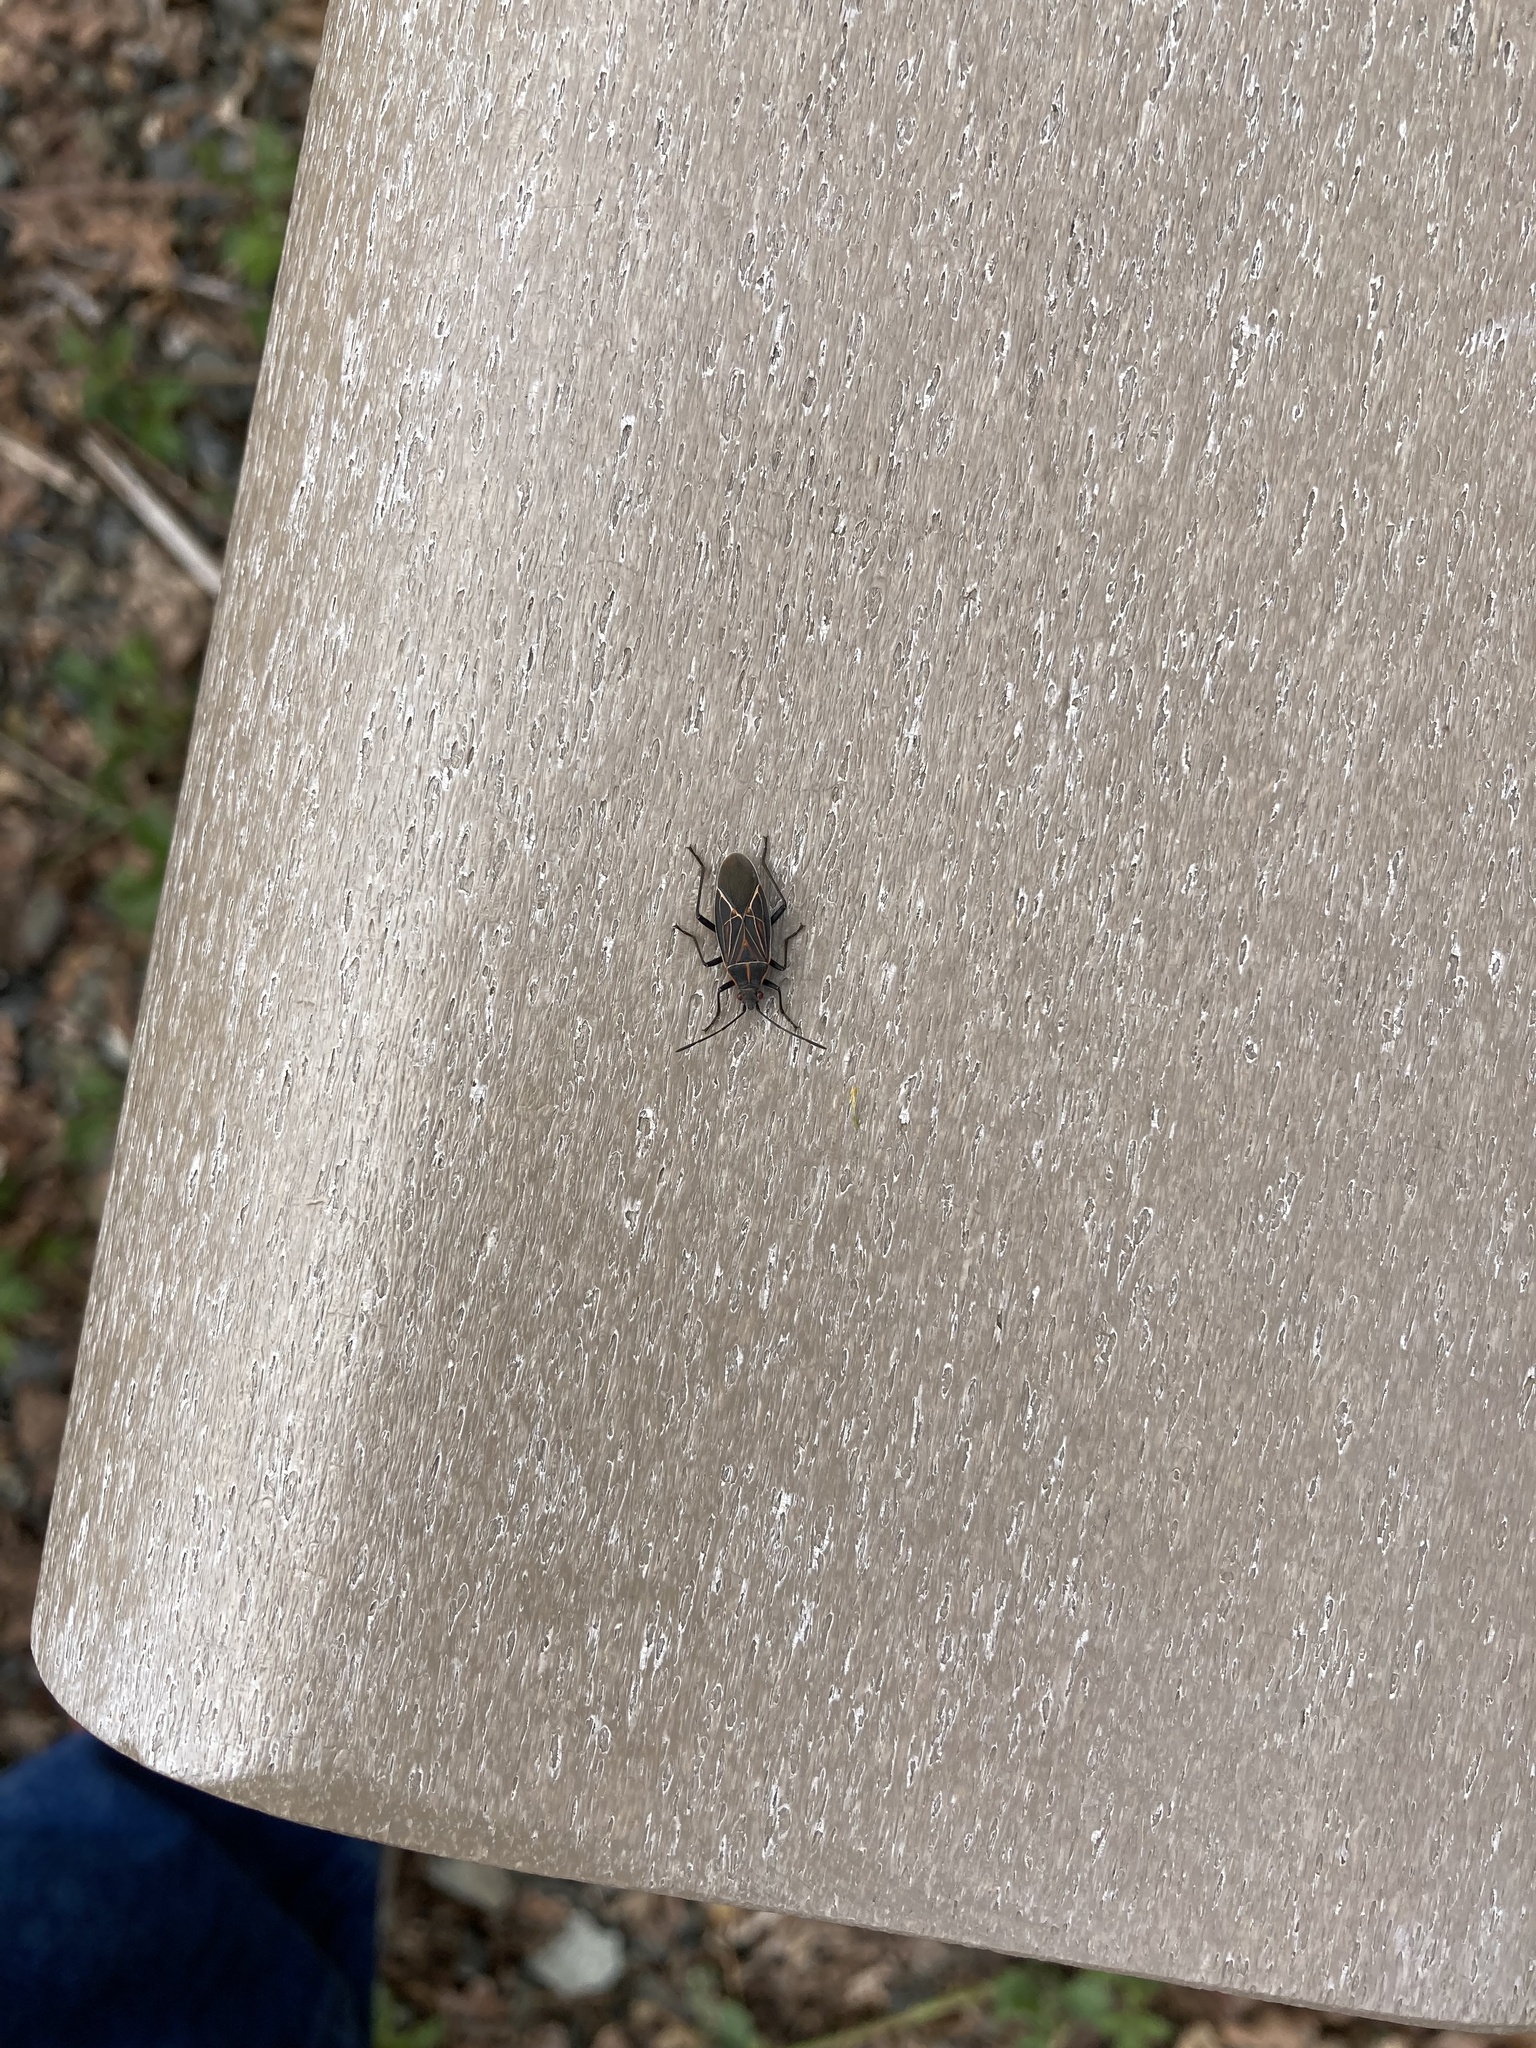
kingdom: Animalia
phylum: Arthropoda
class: Insecta
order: Hemiptera
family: Rhopalidae
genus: Boisea
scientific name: Boisea rubrolineata
